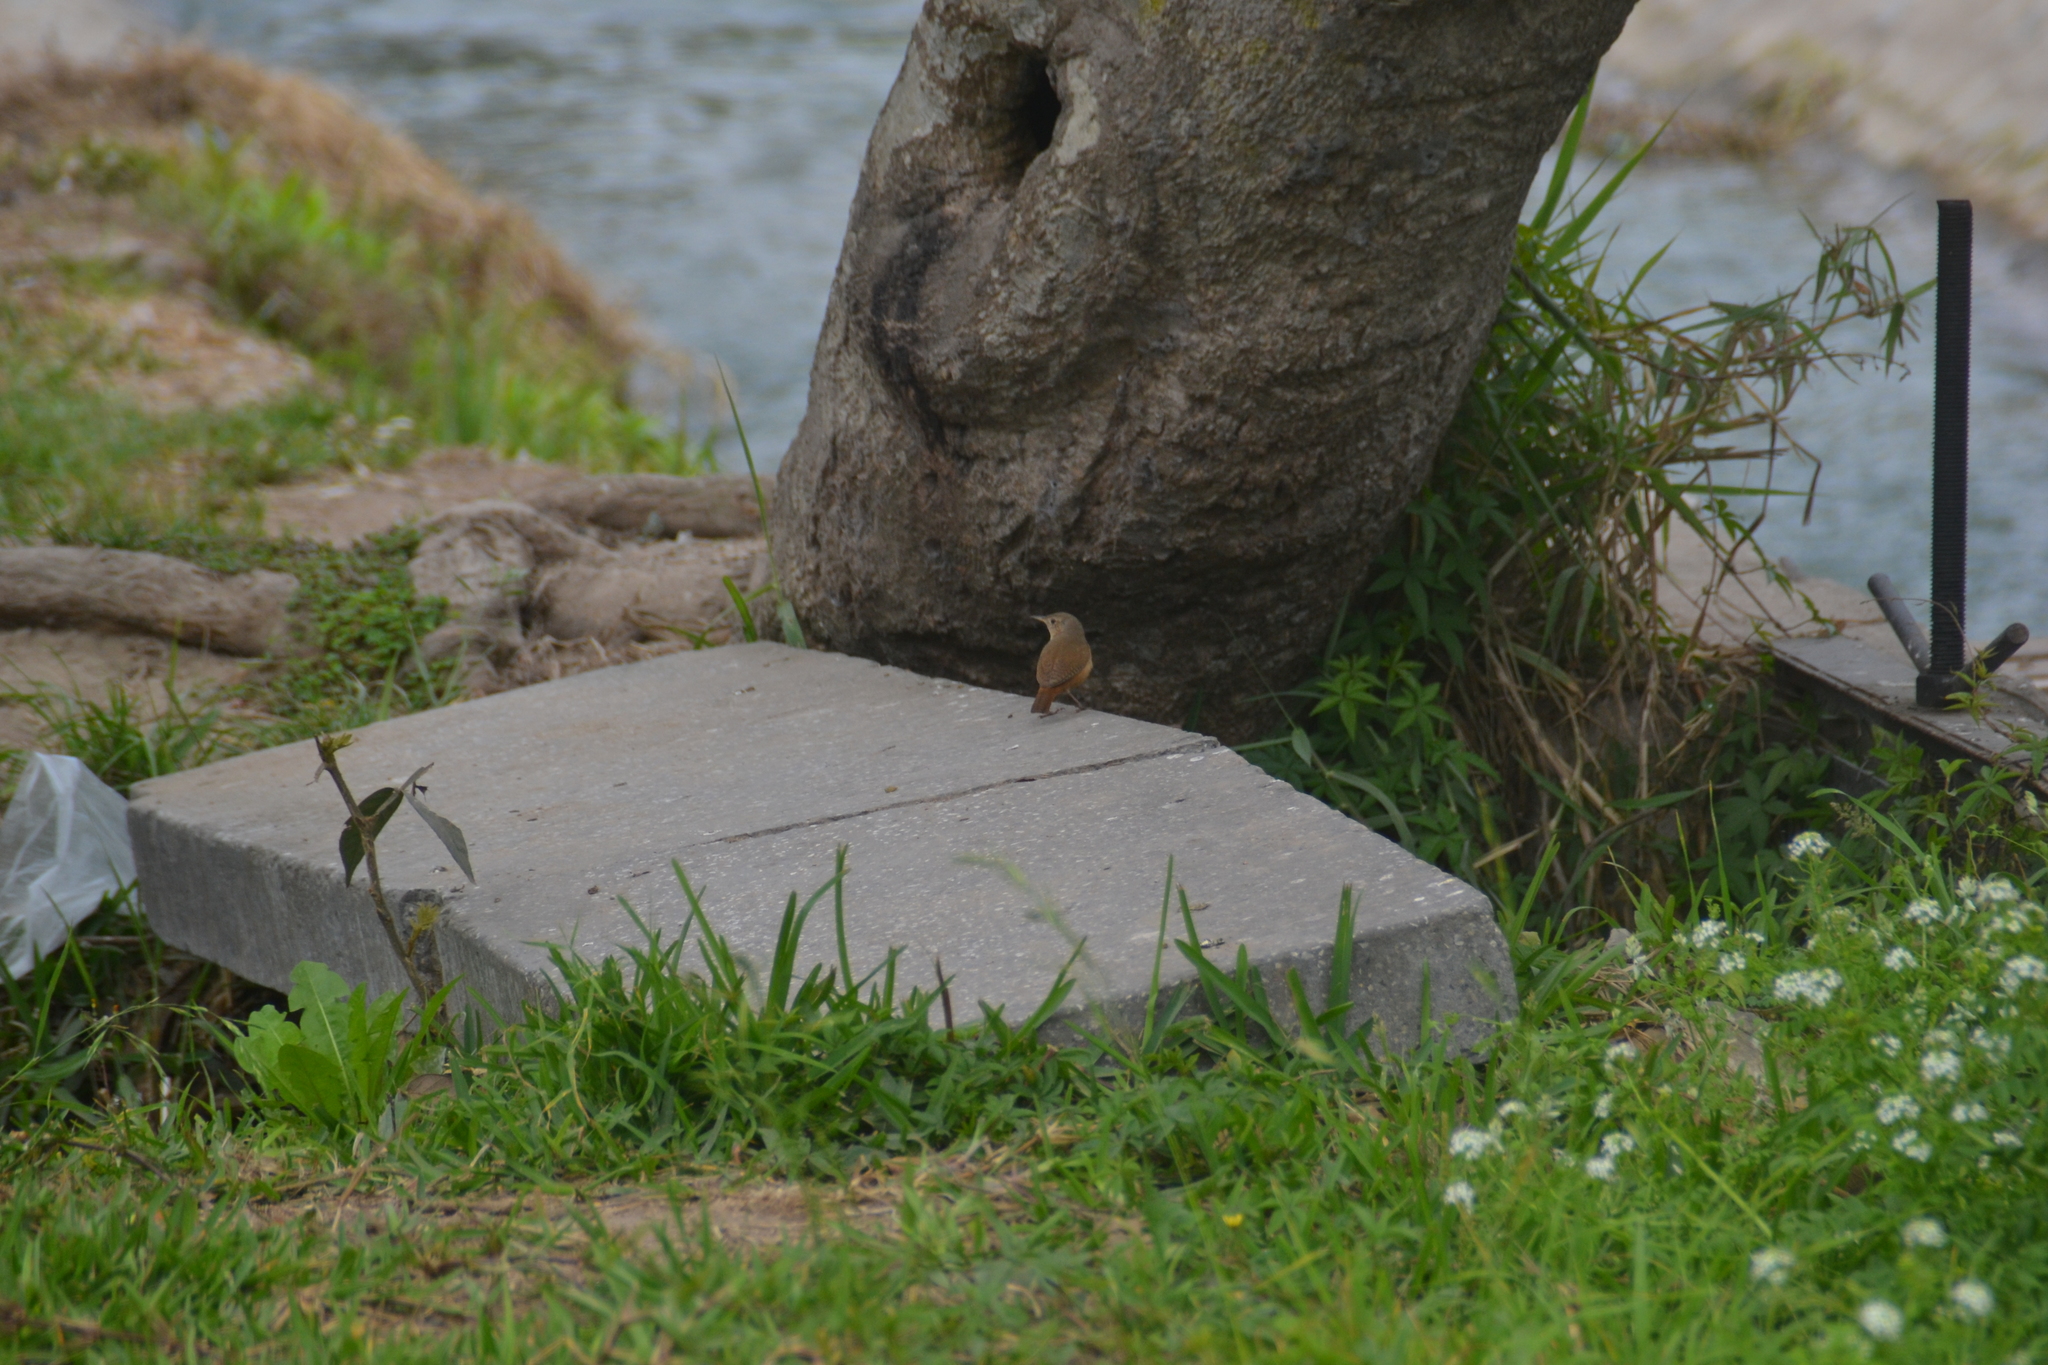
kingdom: Animalia
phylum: Chordata
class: Aves
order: Passeriformes
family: Troglodytidae
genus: Troglodytes
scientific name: Troglodytes aedon
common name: House wren
